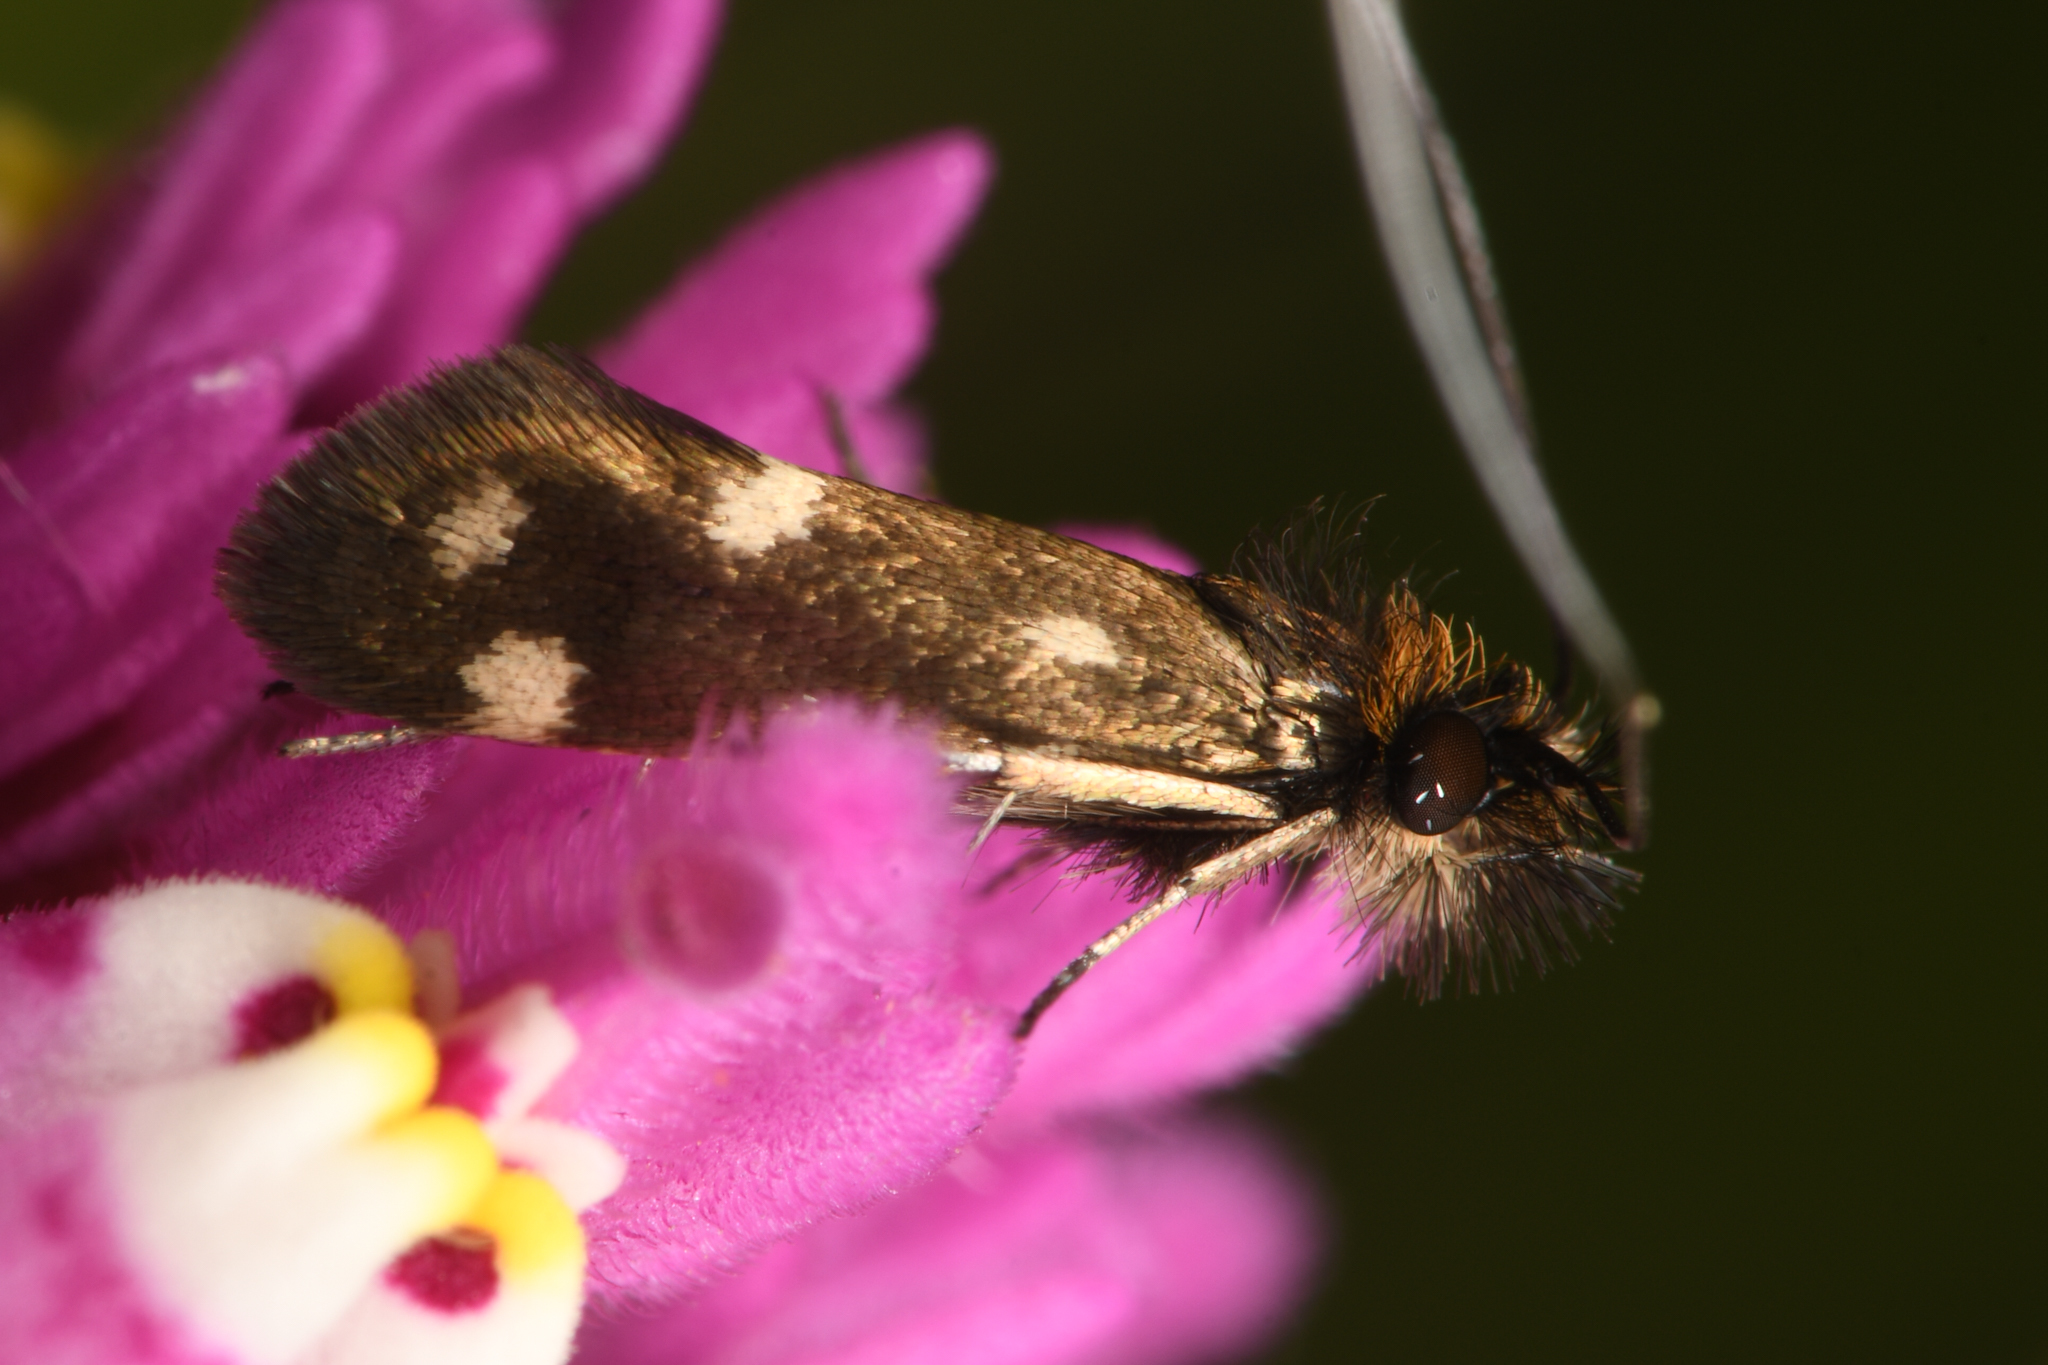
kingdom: Animalia
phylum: Arthropoda
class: Insecta
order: Lepidoptera
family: Adelidae
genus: Adela
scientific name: Adela flammeusella
